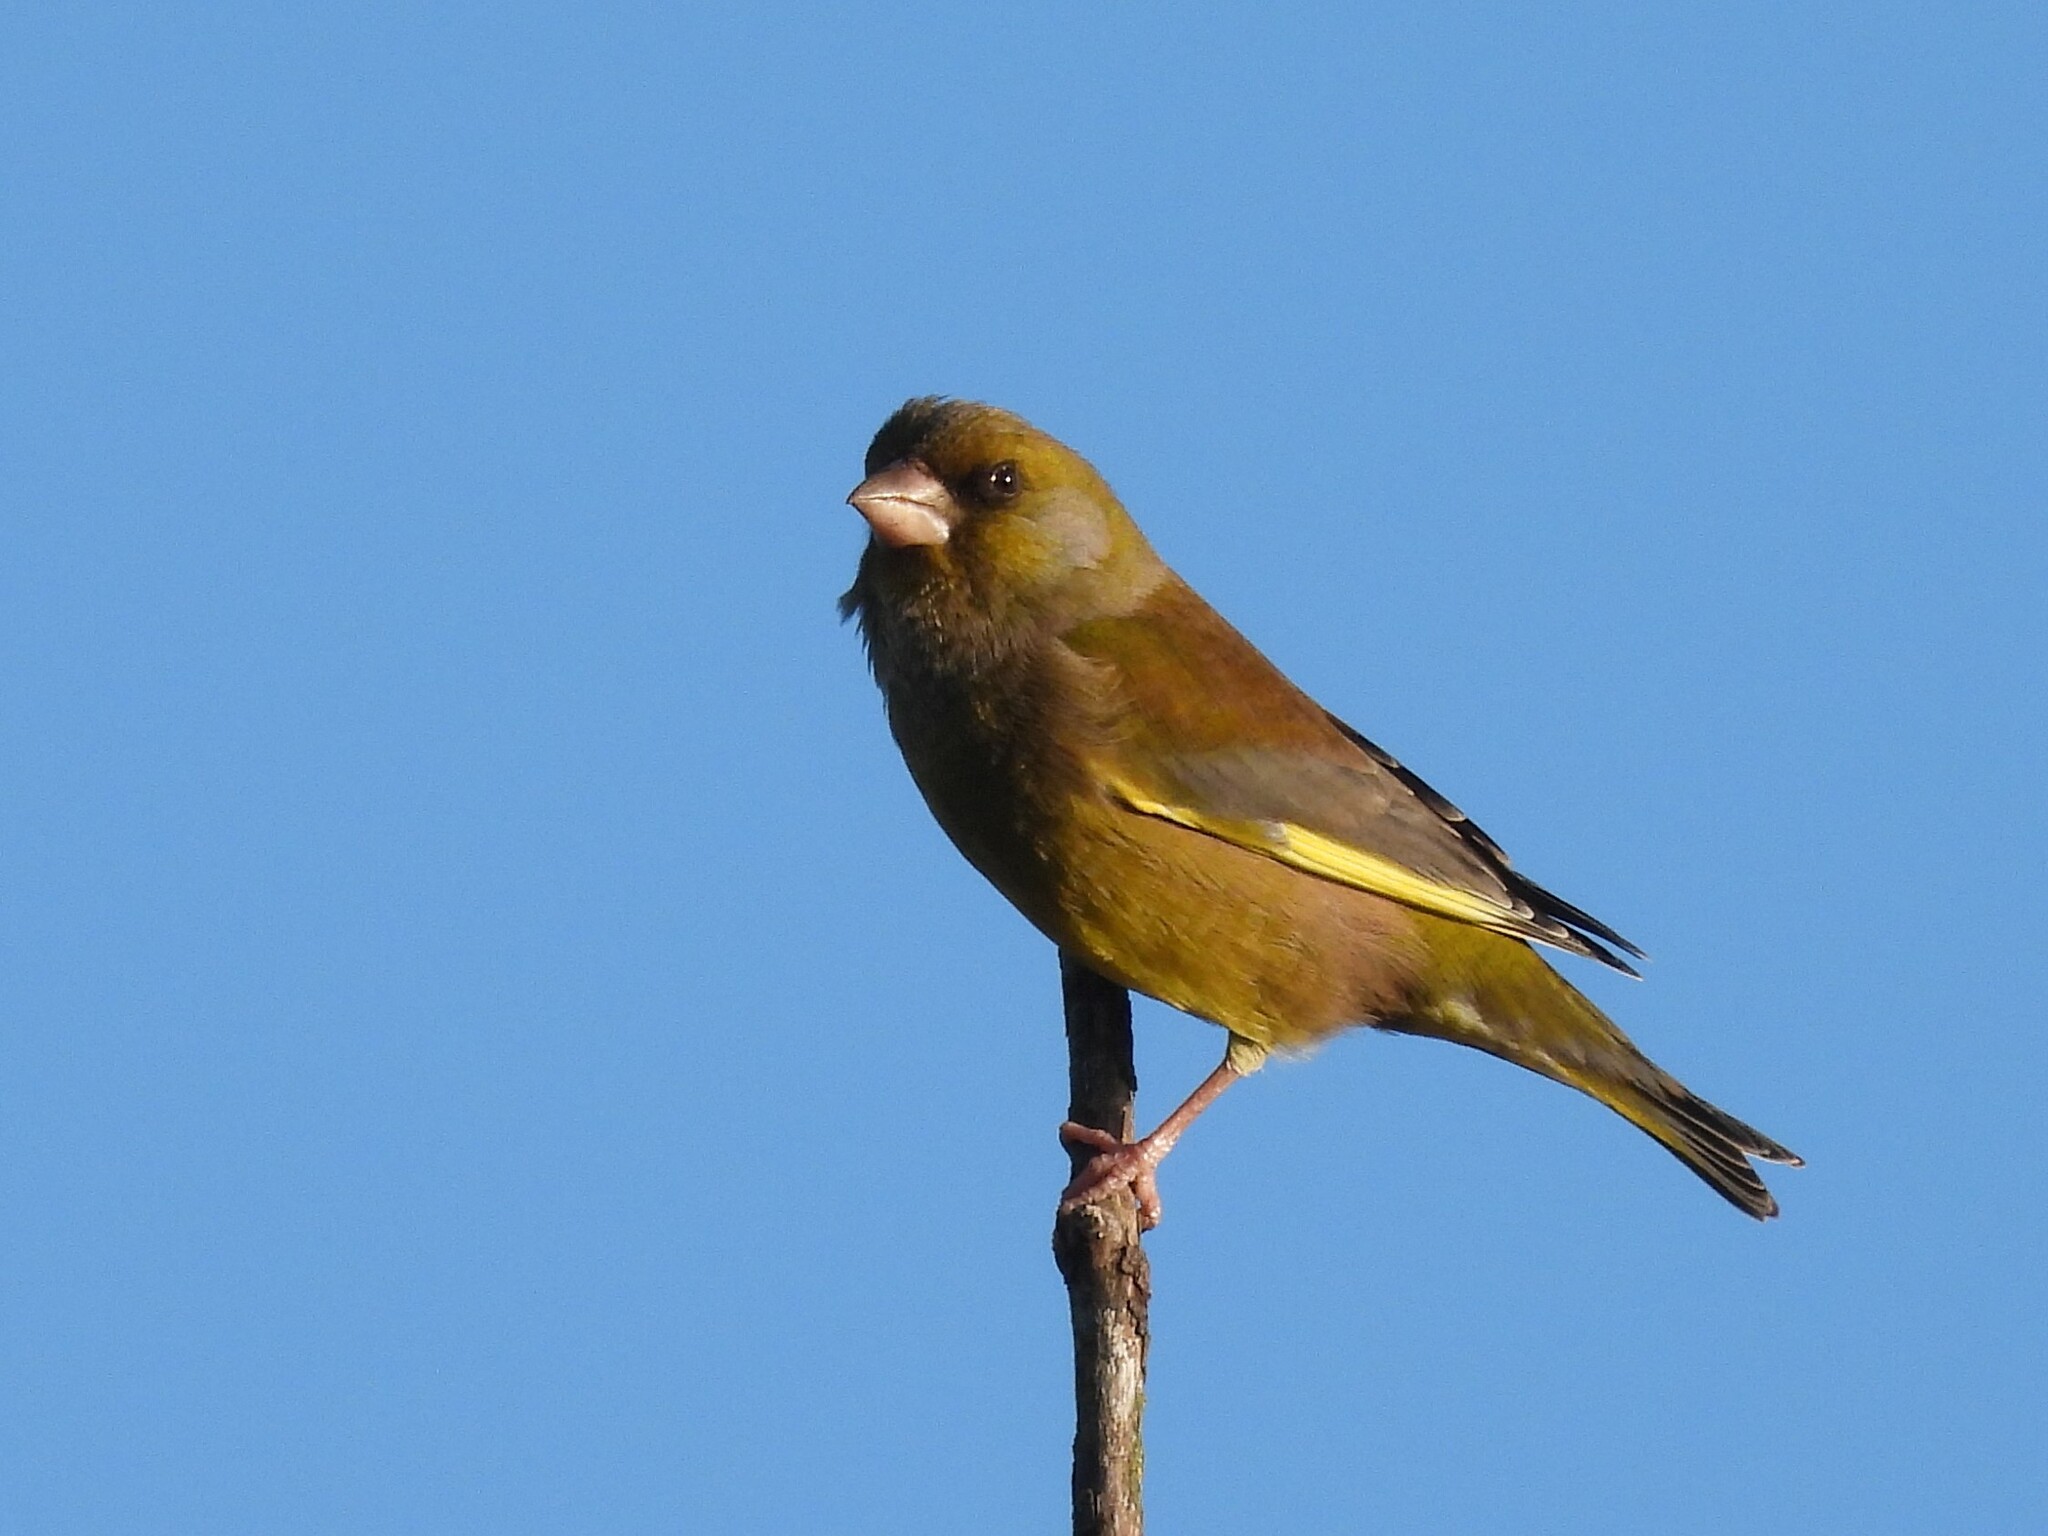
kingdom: Plantae
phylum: Tracheophyta
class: Liliopsida
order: Poales
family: Poaceae
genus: Chloris
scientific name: Chloris chloris
